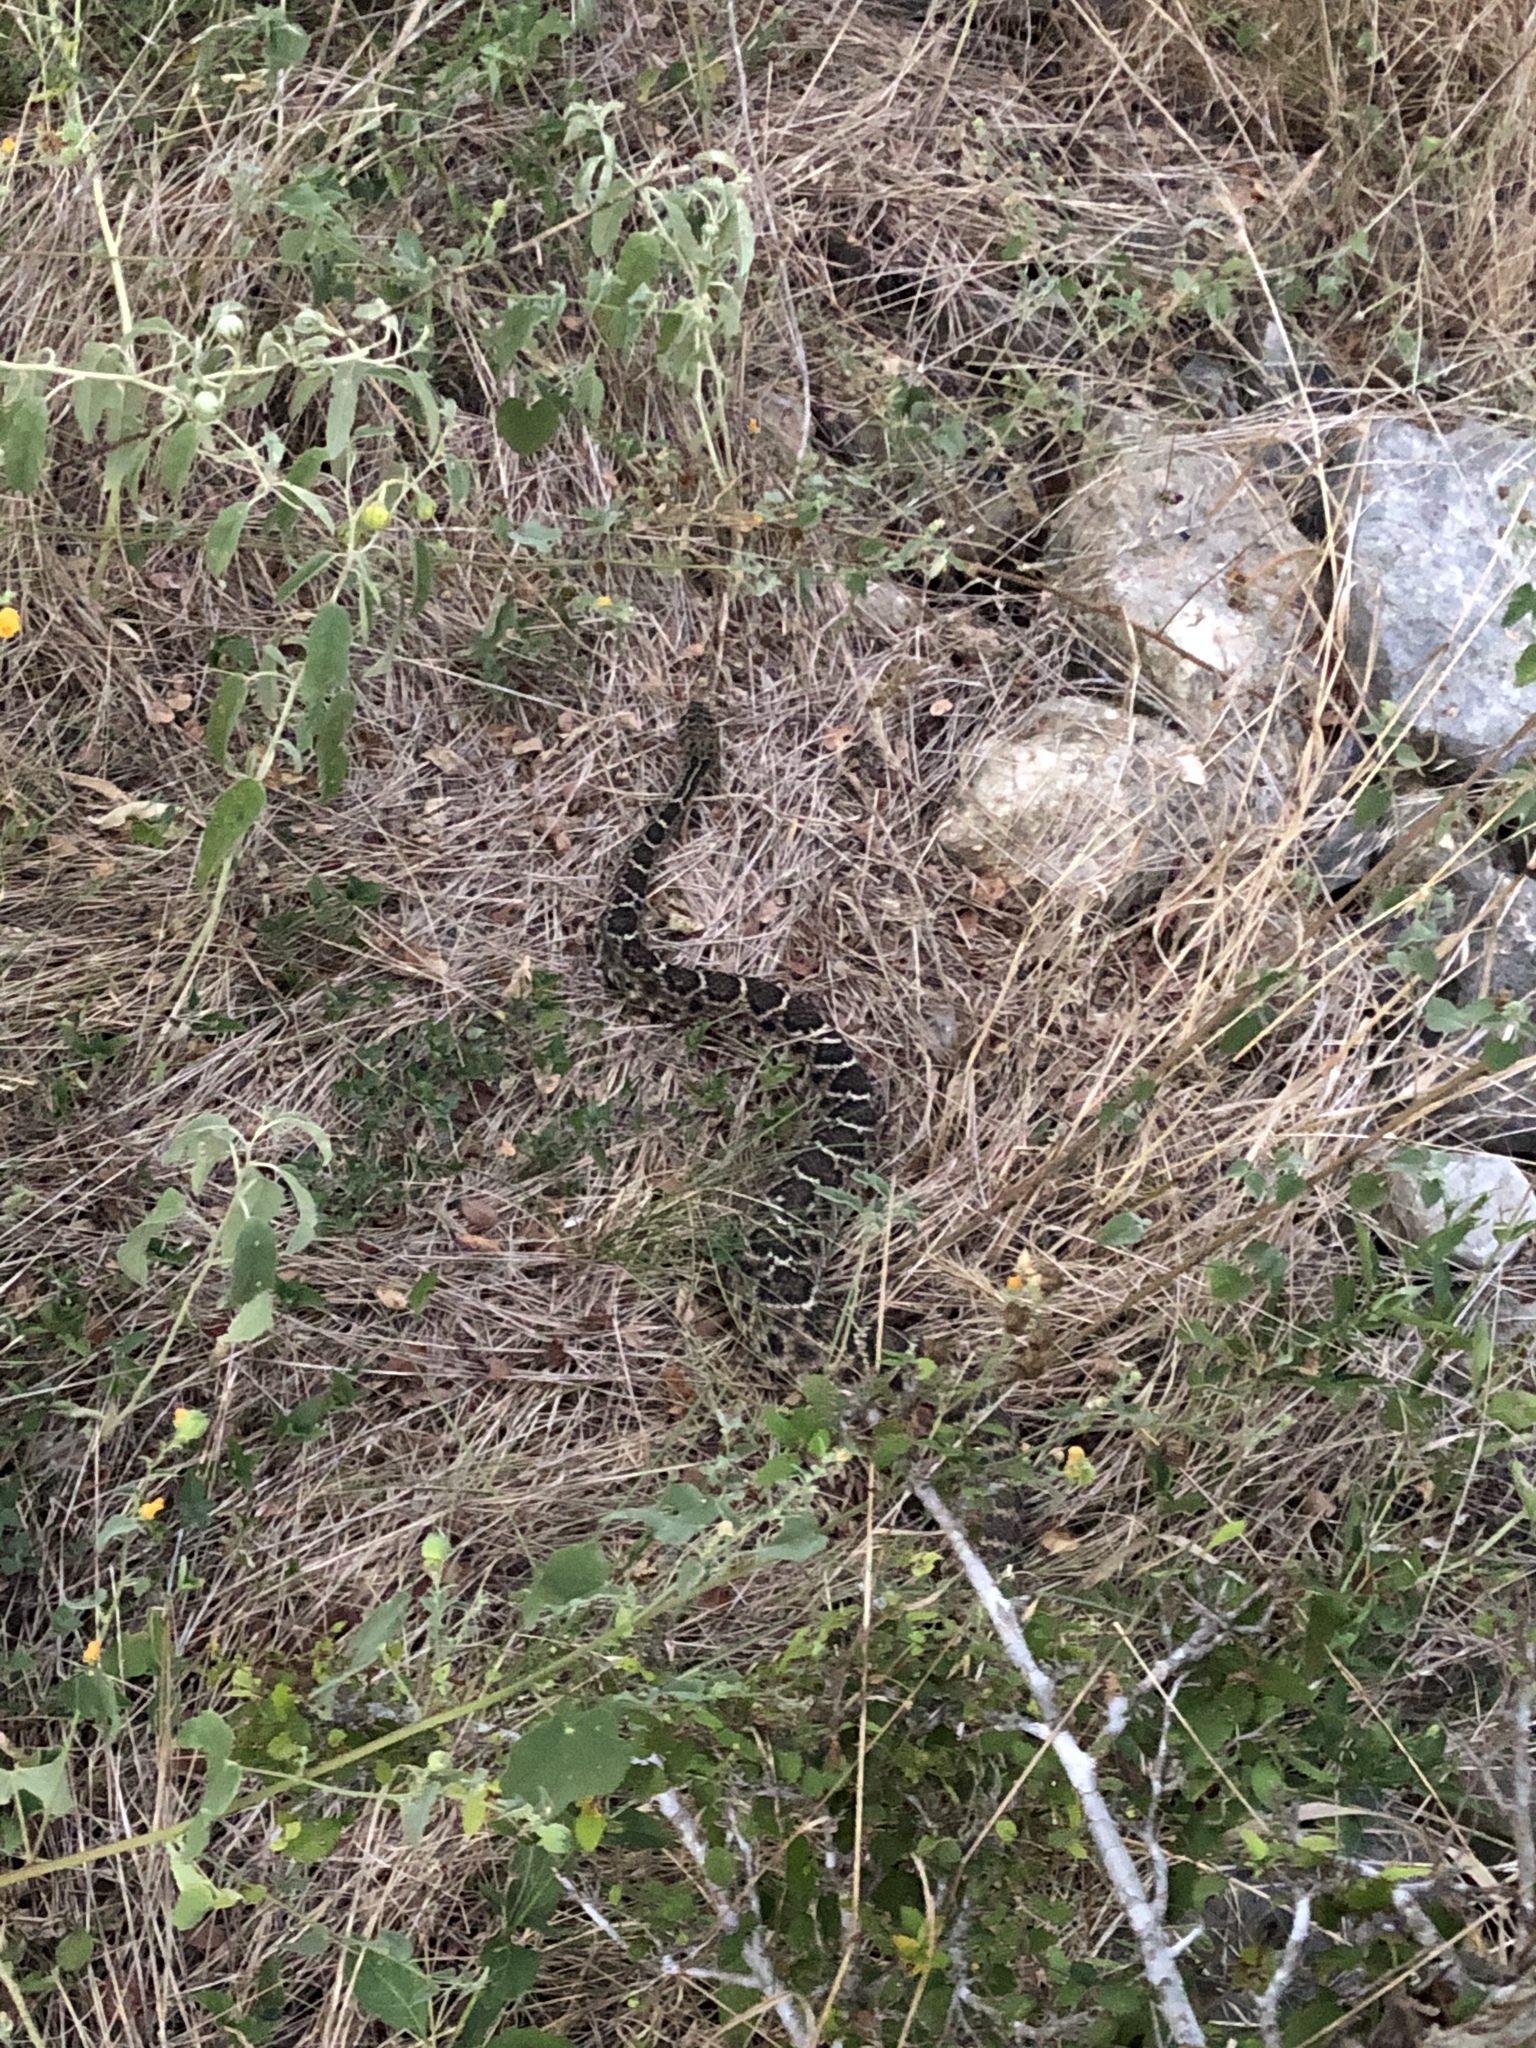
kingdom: Animalia
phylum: Chordata
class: Squamata
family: Viperidae
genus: Crotalus
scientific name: Crotalus atrox
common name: Western diamond-backed rattlesnake
